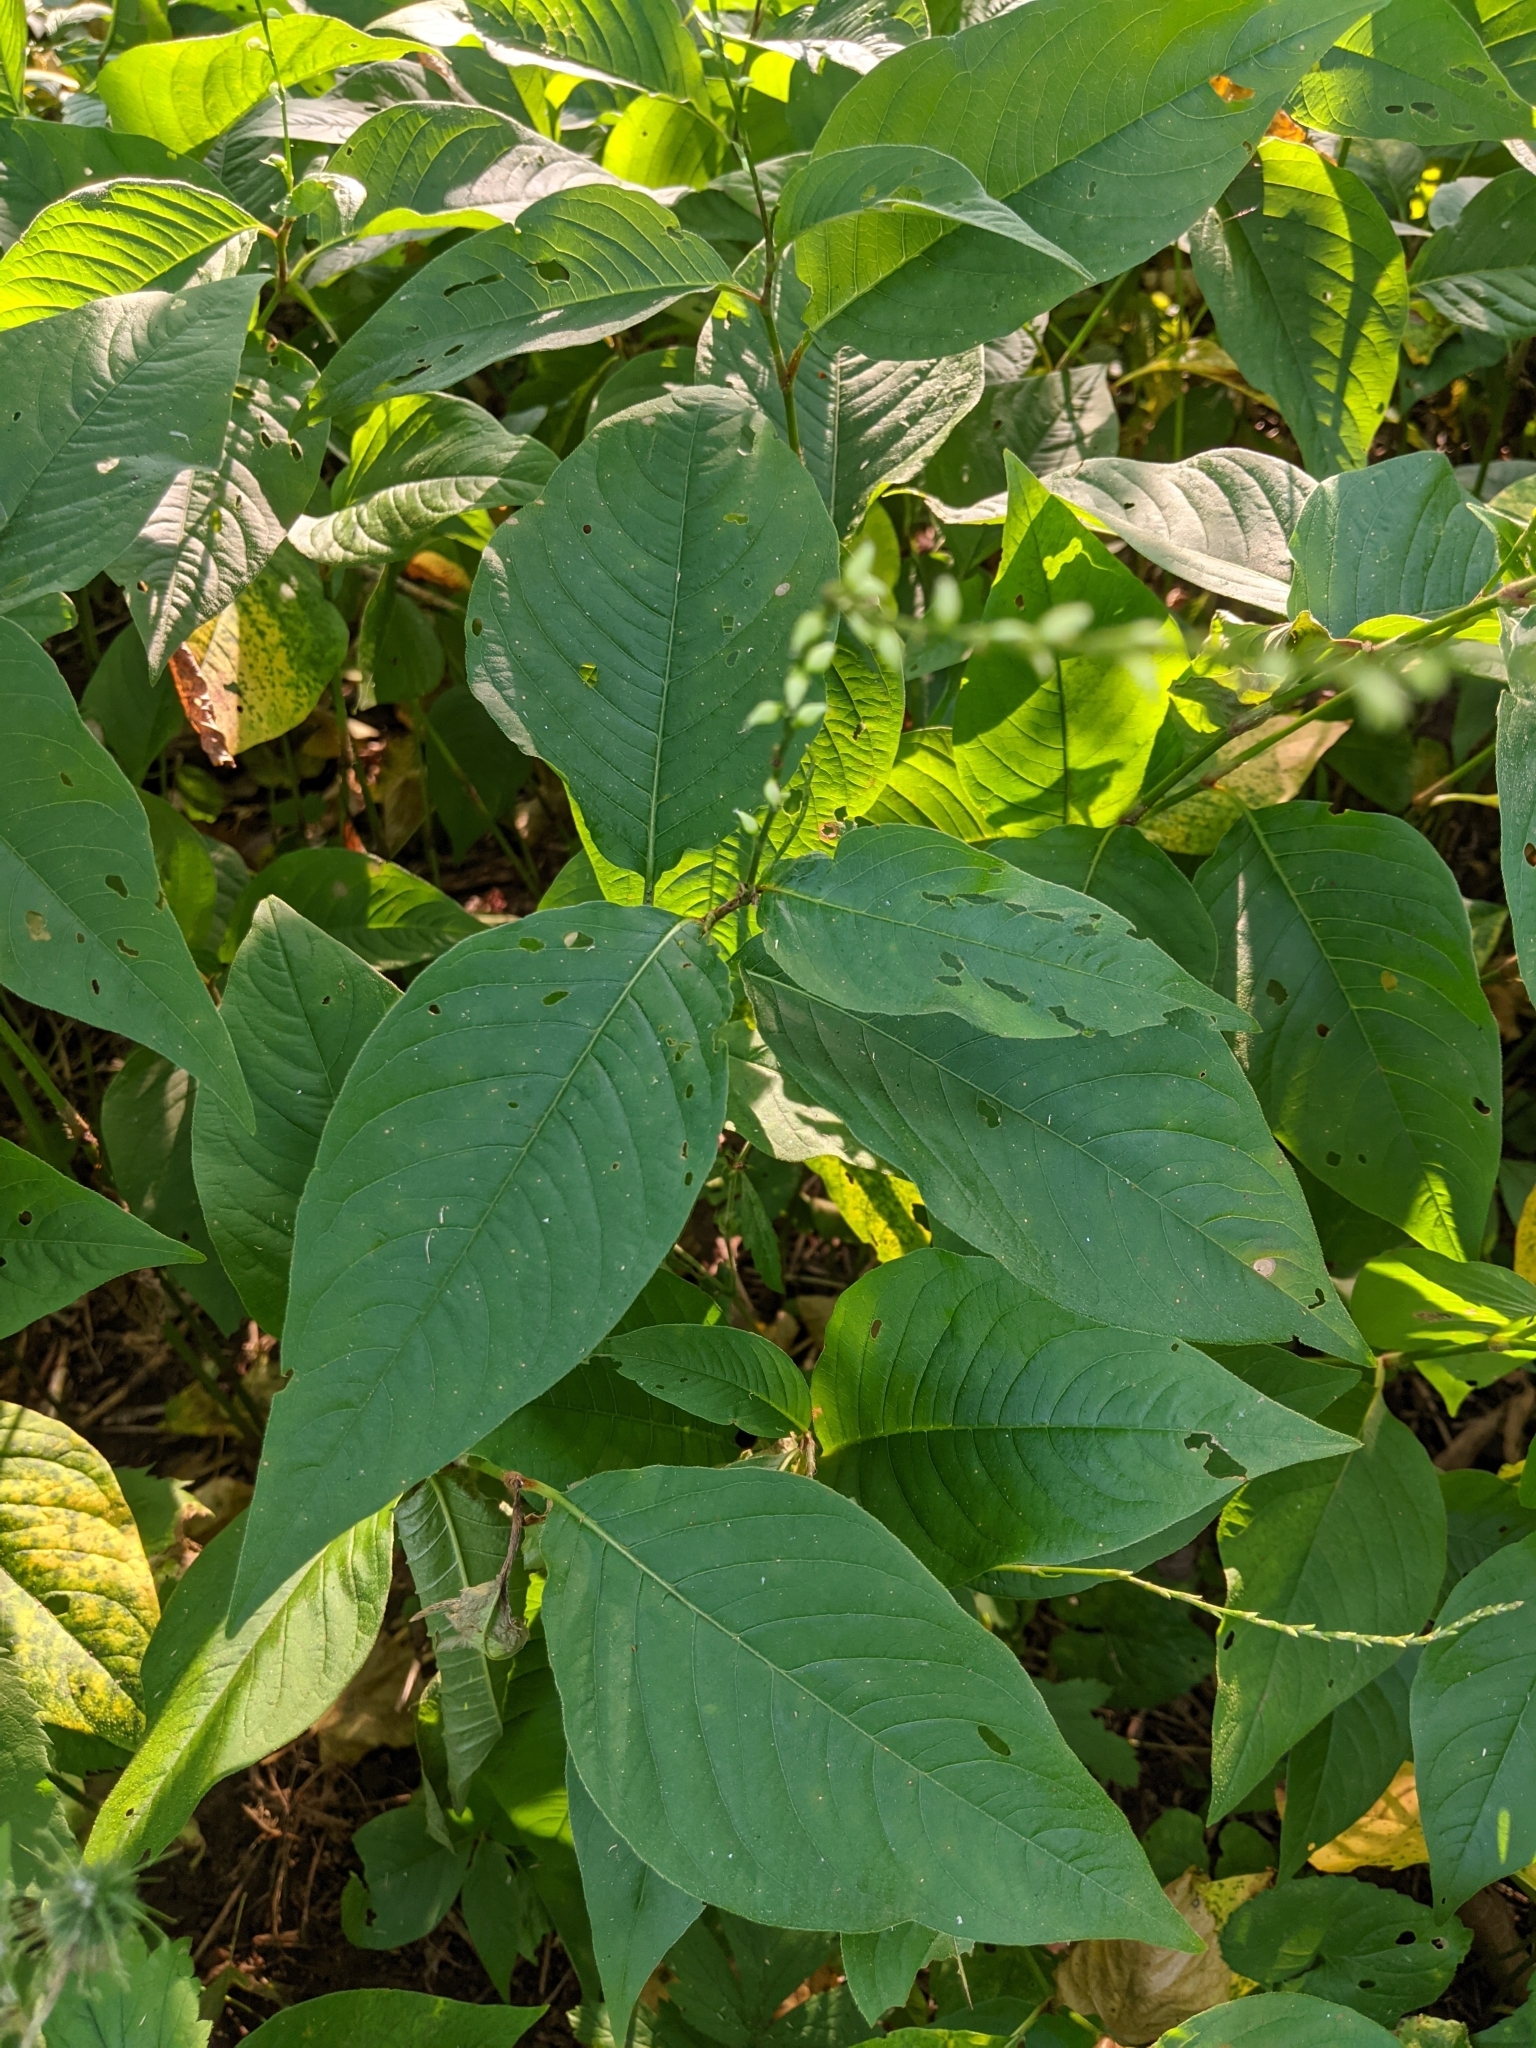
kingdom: Plantae
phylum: Tracheophyta
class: Magnoliopsida
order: Caryophyllales
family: Polygonaceae
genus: Persicaria
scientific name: Persicaria virginiana
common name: Jumpseed
